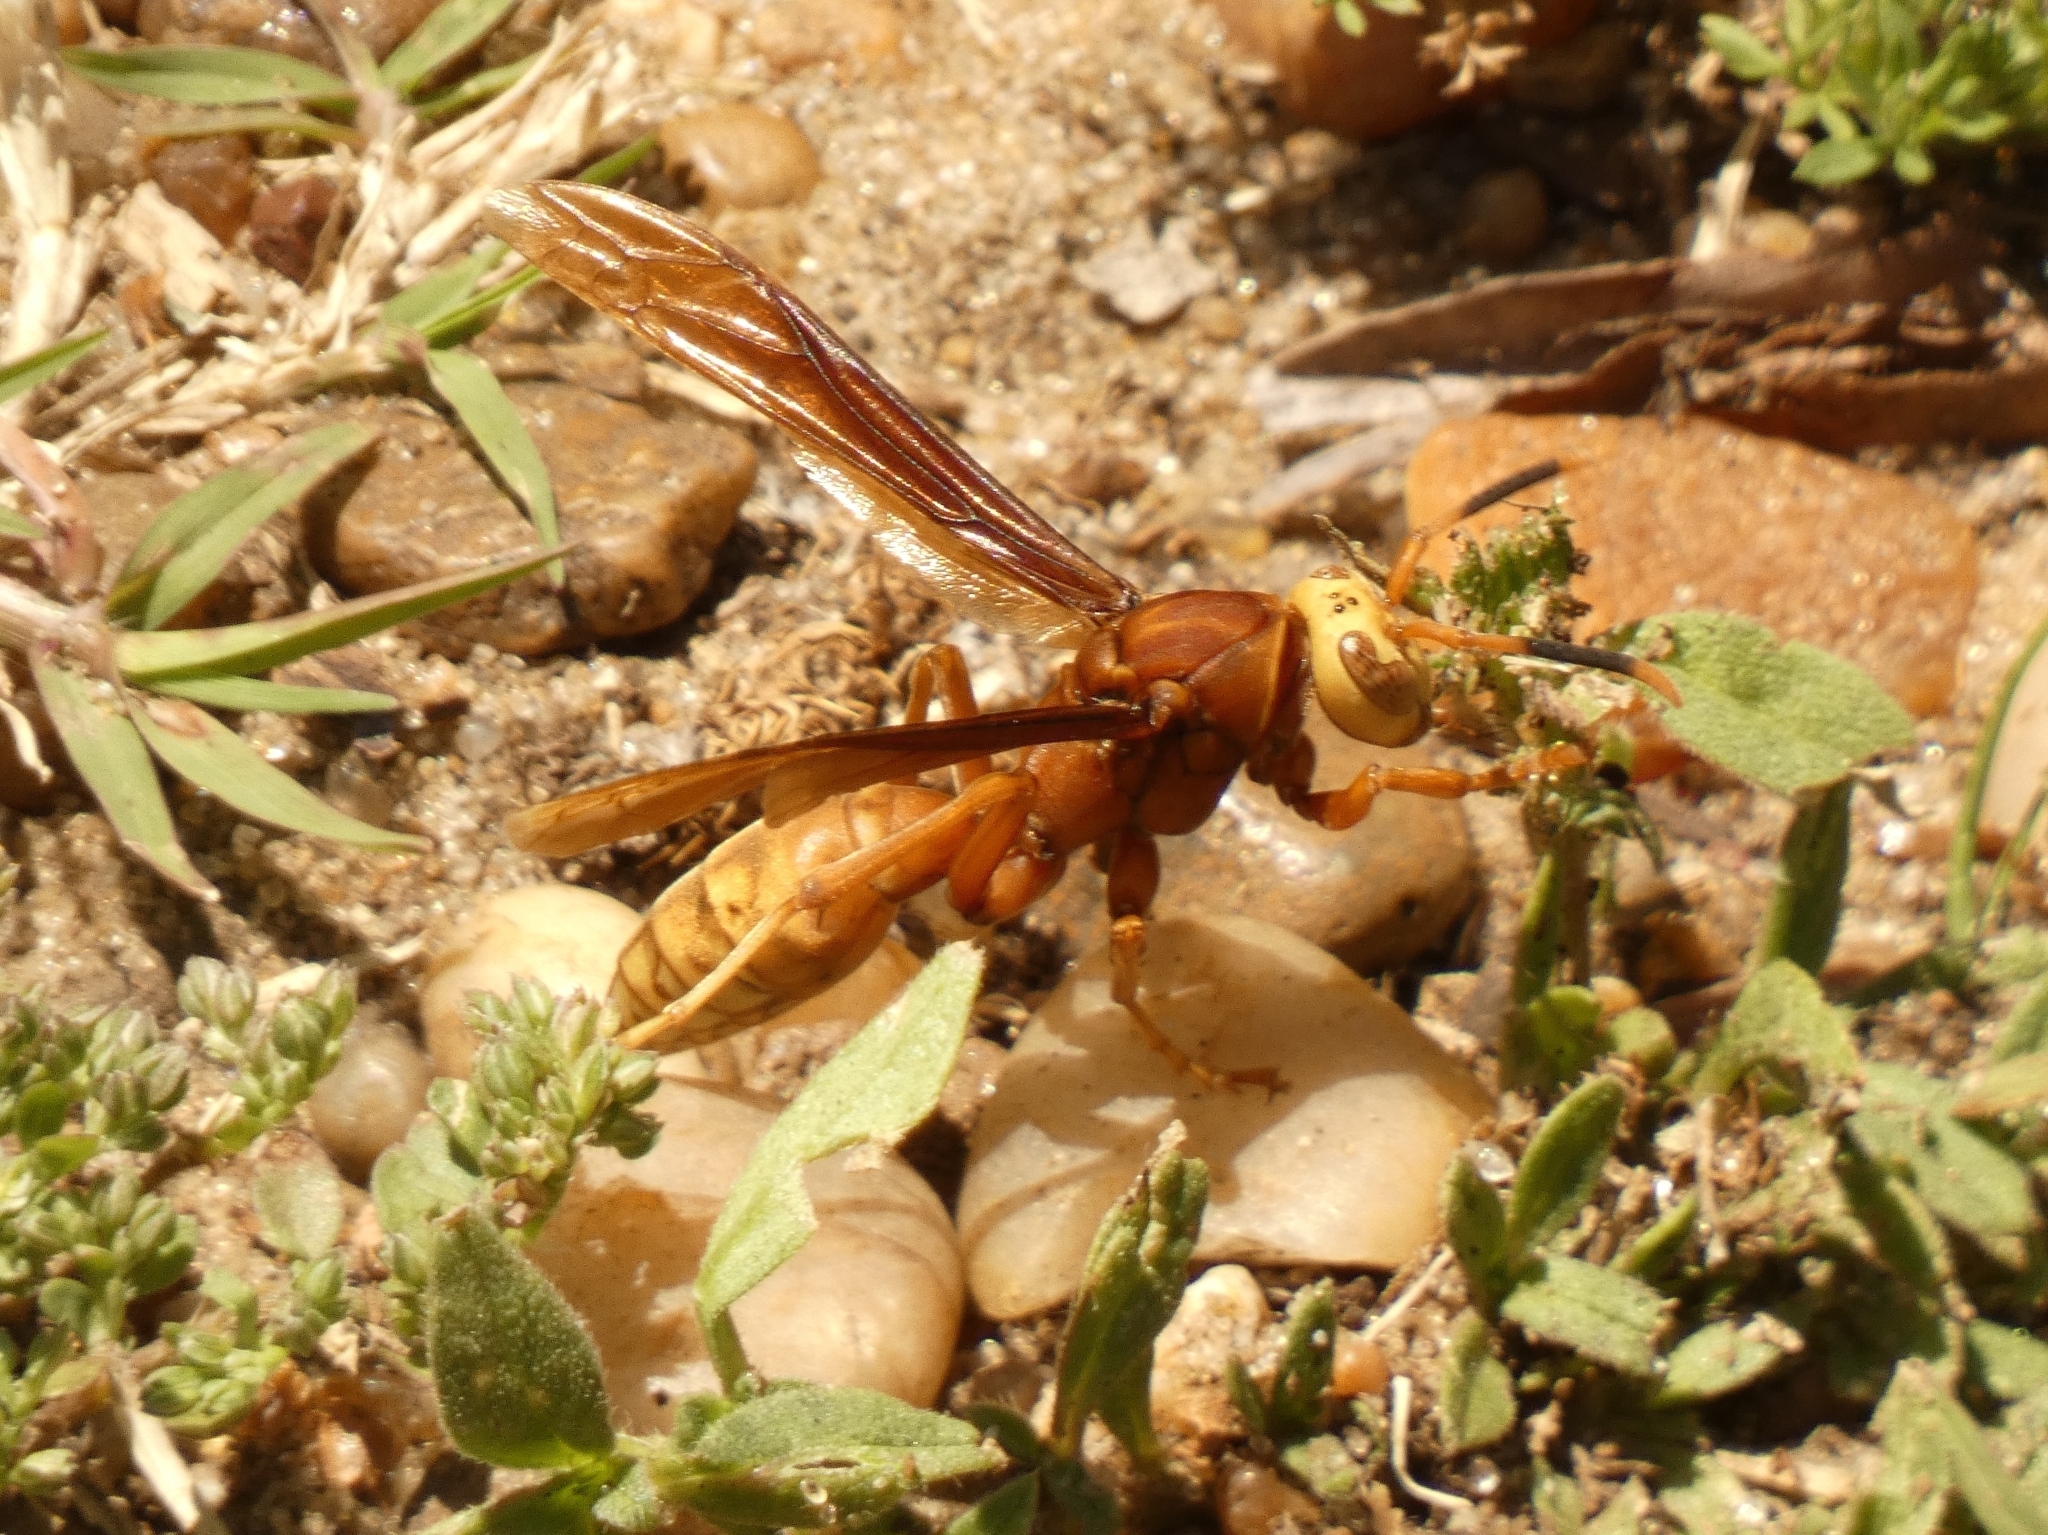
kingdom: Animalia
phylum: Arthropoda
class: Insecta
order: Hymenoptera
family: Eumenidae
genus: Polistes
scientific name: Polistes cavapyta
